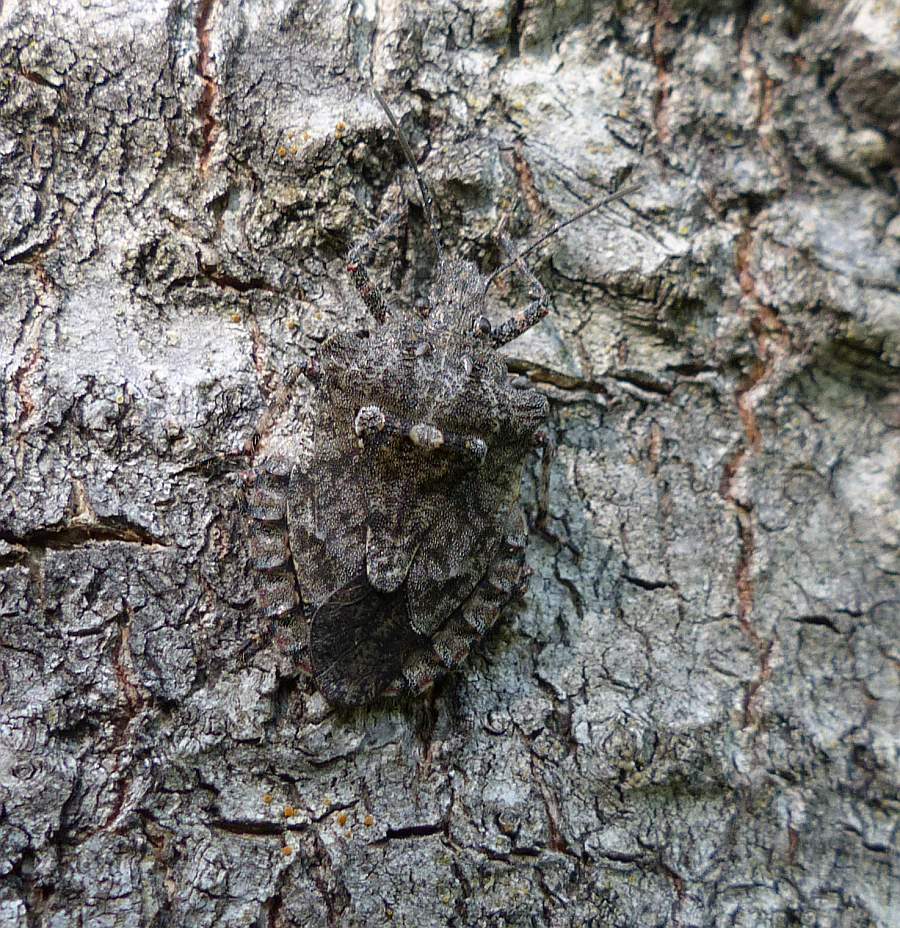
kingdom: Animalia
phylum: Arthropoda
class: Insecta
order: Hemiptera
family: Pentatomidae
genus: Brochymena
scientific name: Brochymena arborea
